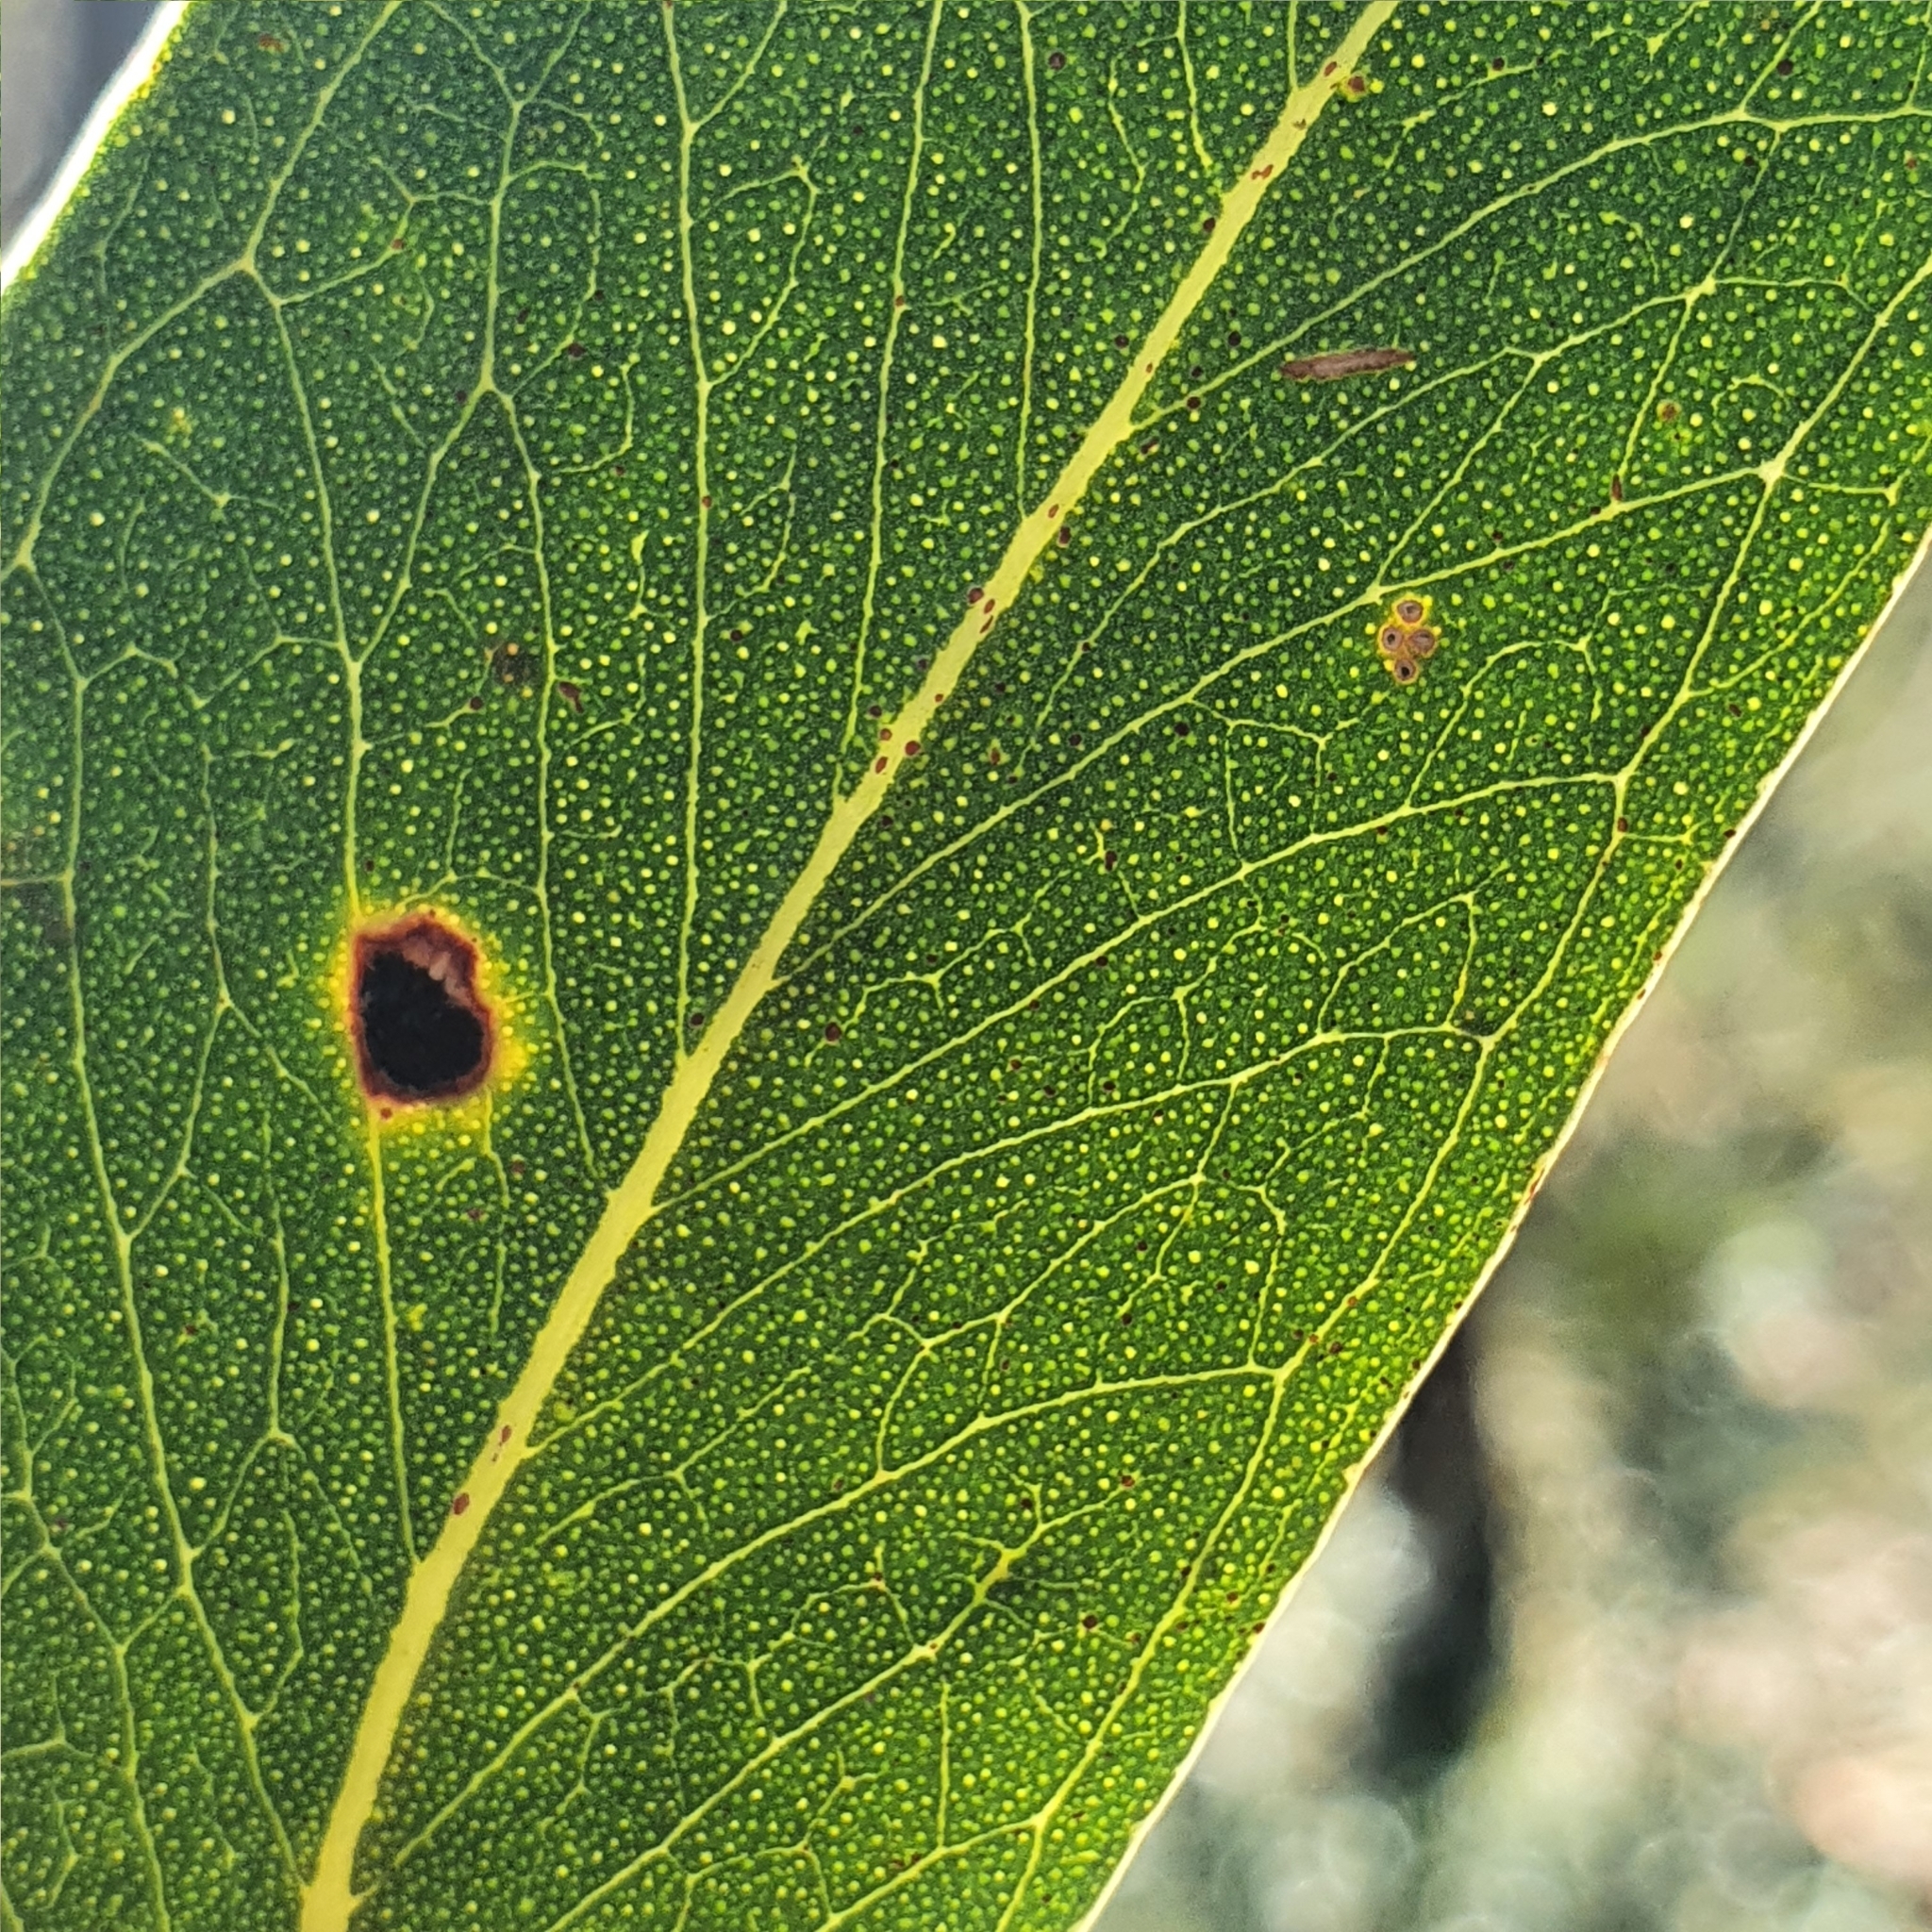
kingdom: Plantae
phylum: Tracheophyta
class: Magnoliopsida
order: Myrtales
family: Myrtaceae
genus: Eucalyptus
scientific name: Eucalyptus haemastoma
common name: Scribbly-gum
